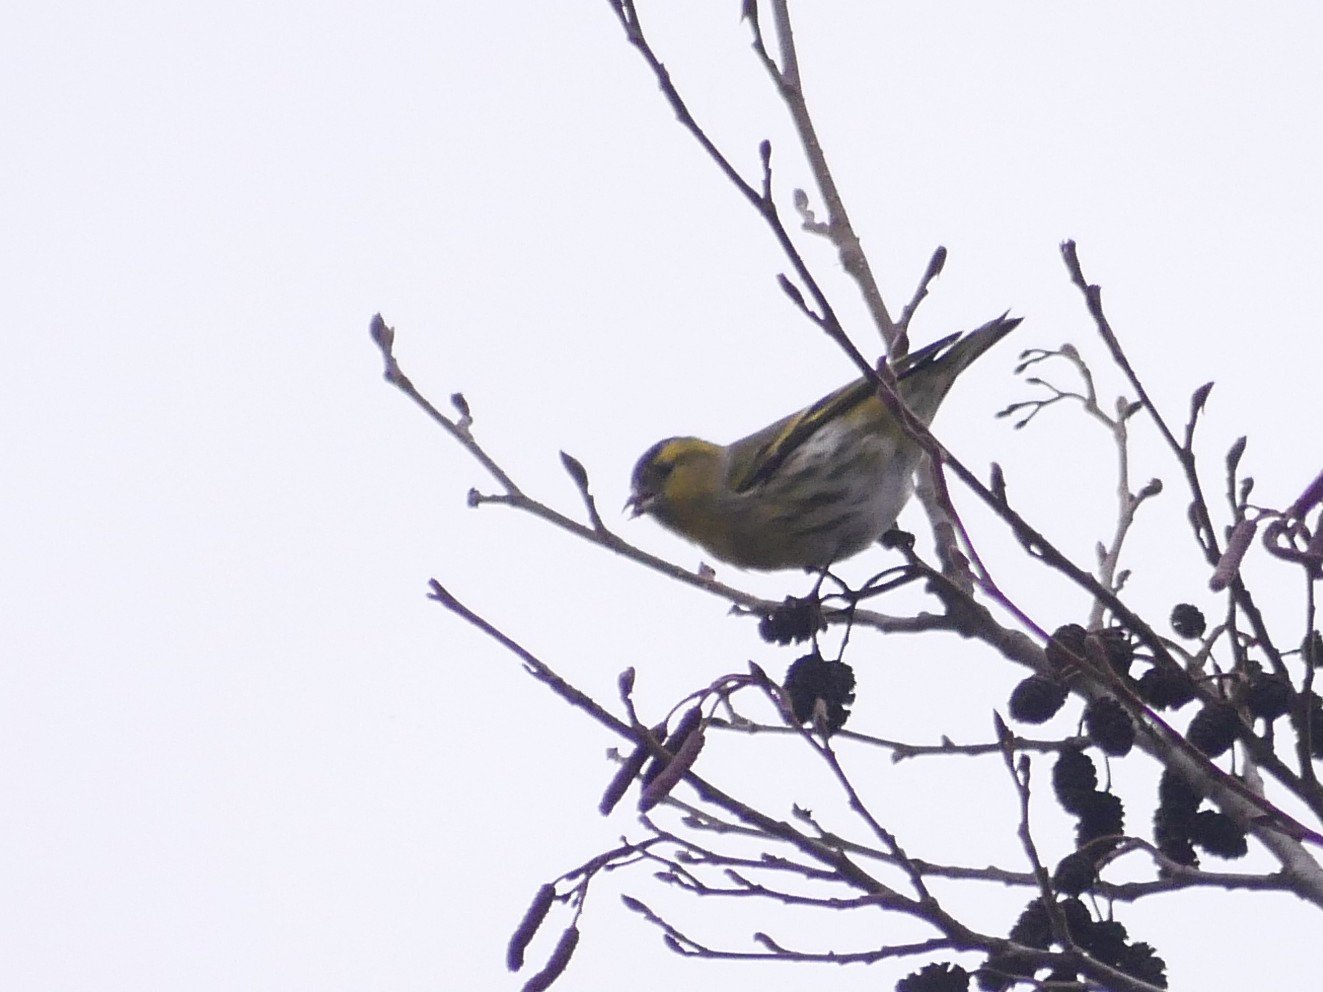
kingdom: Animalia
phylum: Chordata
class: Aves
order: Passeriformes
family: Fringillidae
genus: Spinus
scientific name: Spinus spinus
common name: Eurasian siskin
